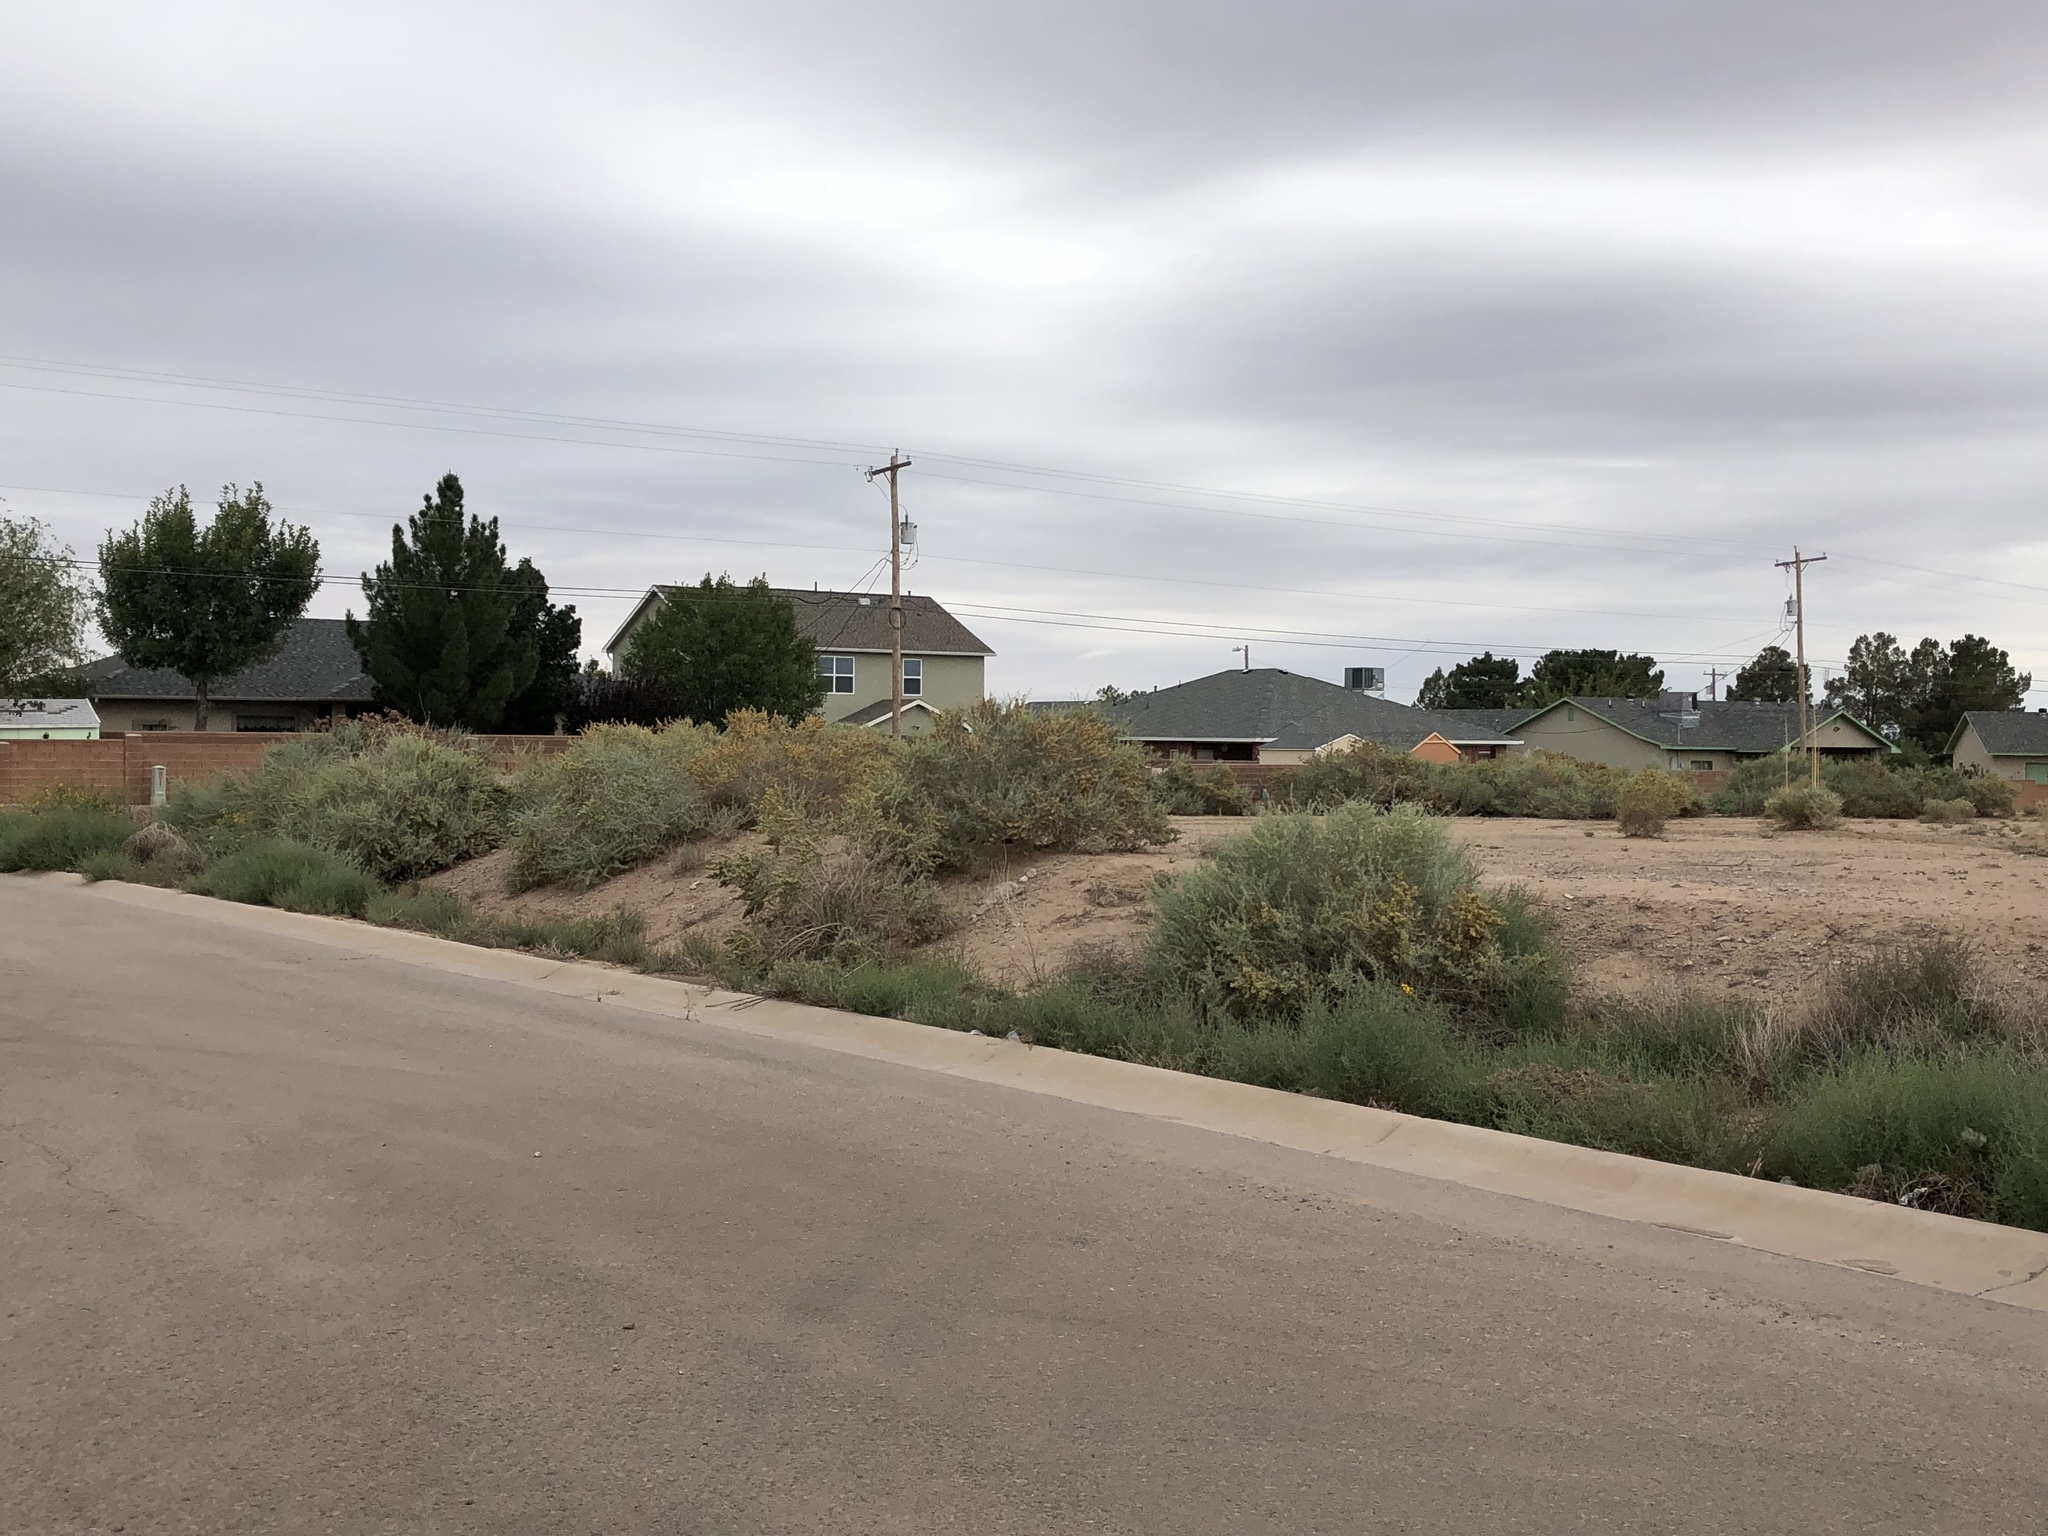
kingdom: Plantae
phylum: Tracheophyta
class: Magnoliopsida
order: Caryophyllales
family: Amaranthaceae
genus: Atriplex
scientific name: Atriplex canescens
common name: Four-wing saltbush
